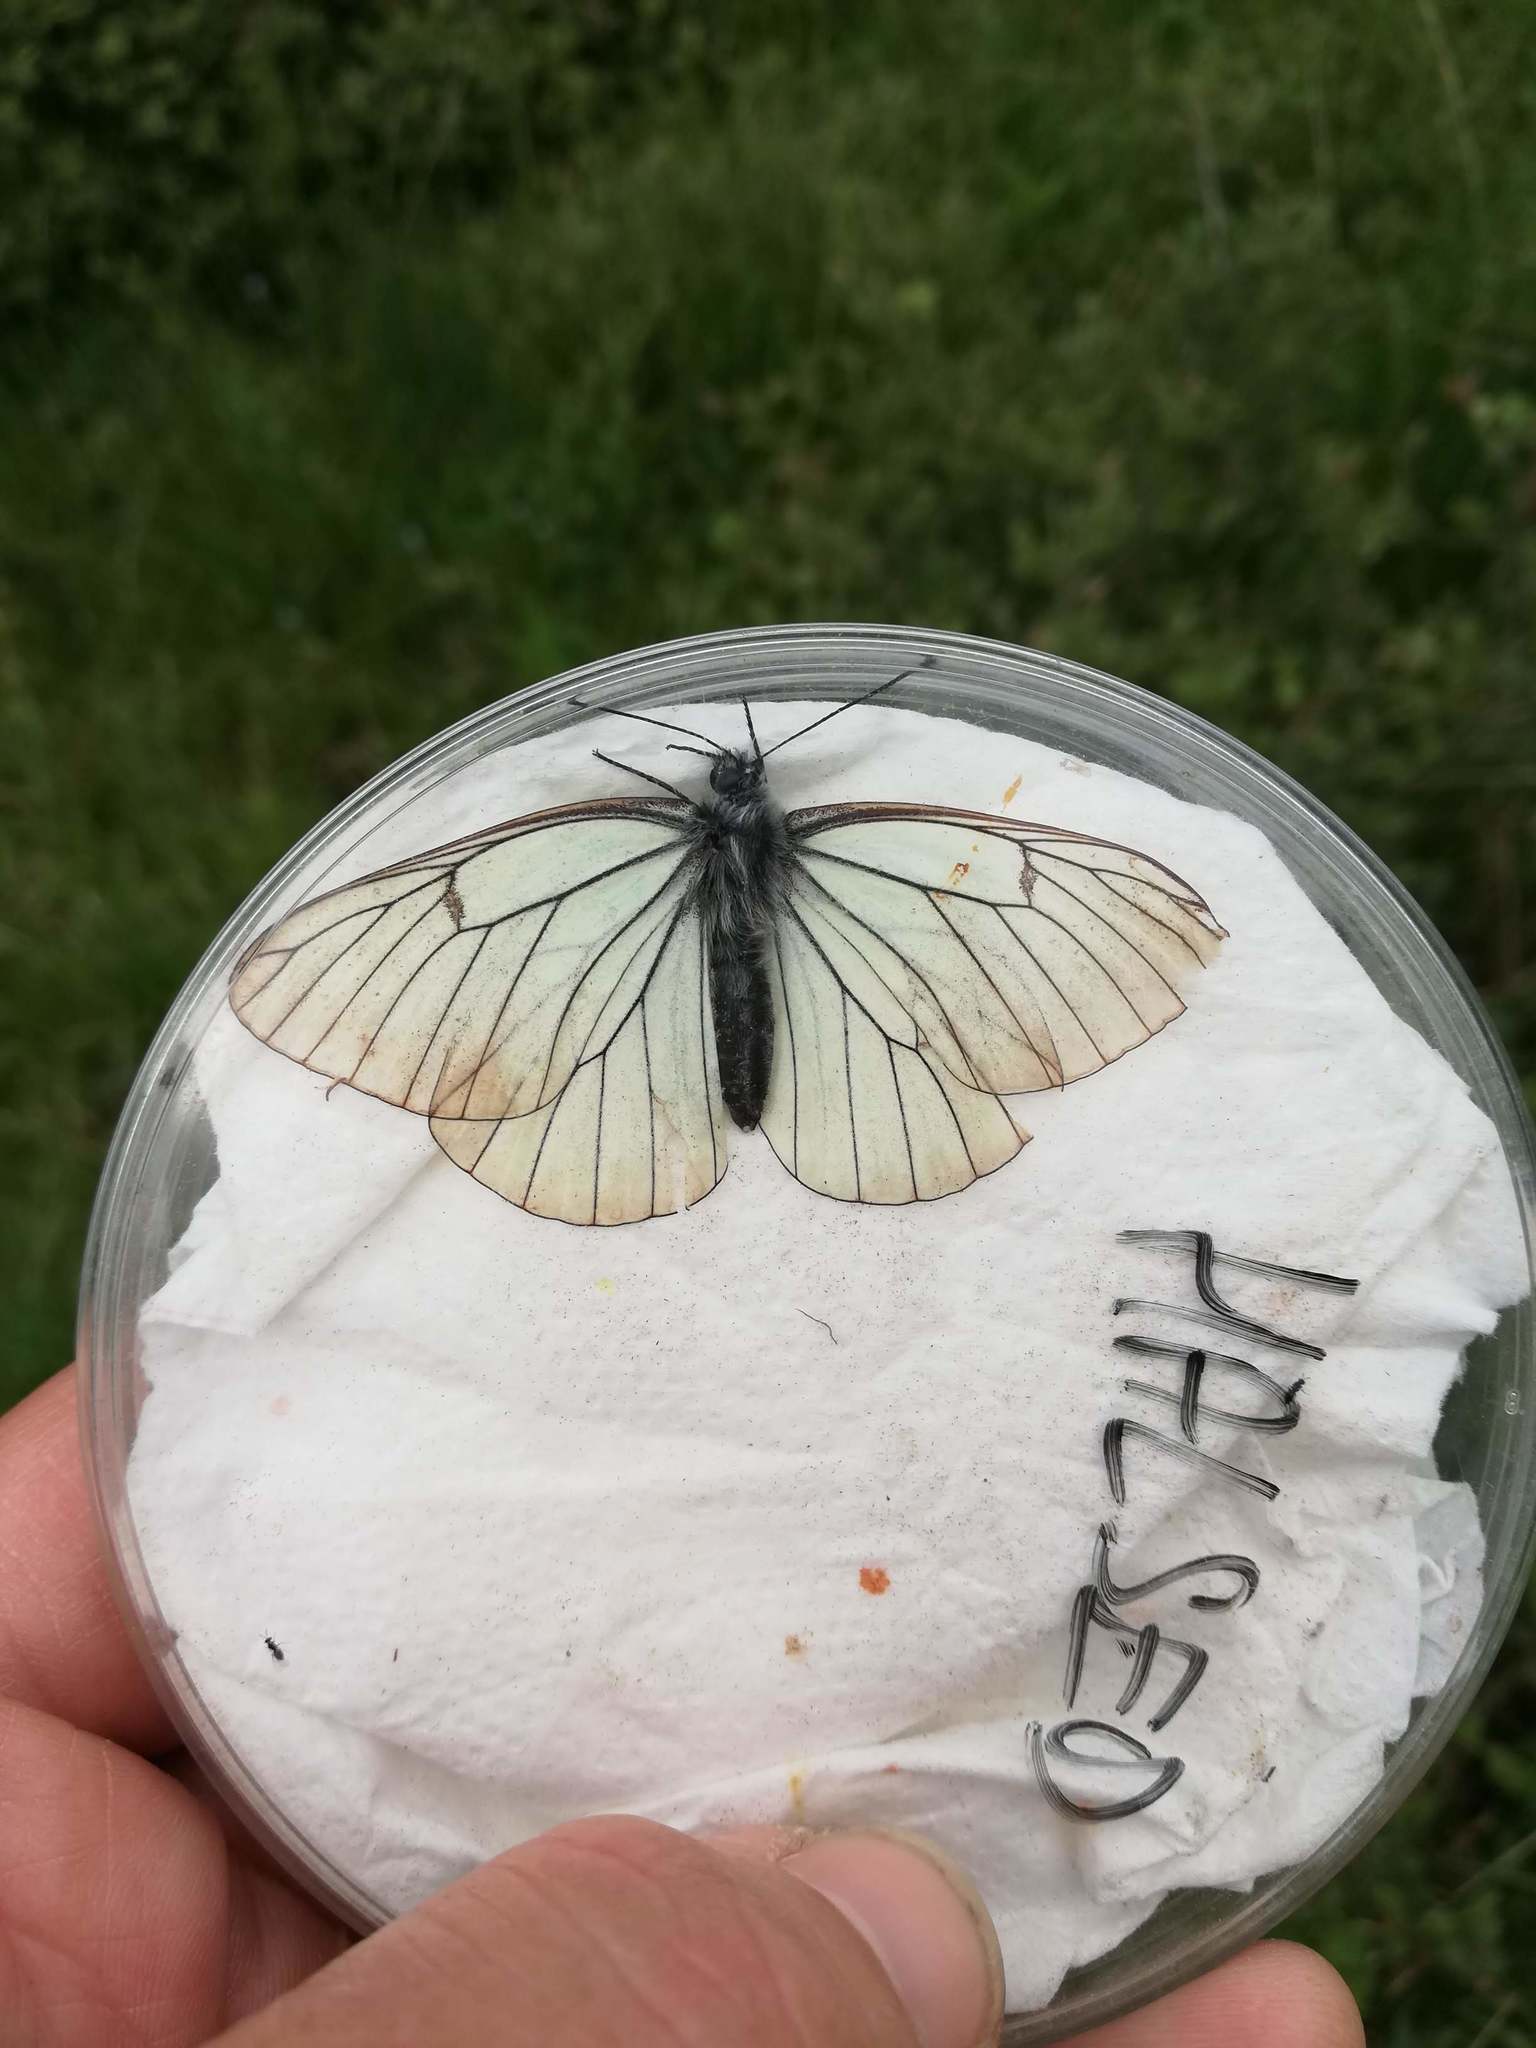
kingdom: Animalia
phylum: Arthropoda
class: Insecta
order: Lepidoptera
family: Pieridae
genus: Aporia
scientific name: Aporia crataegi
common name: Black-veined white
